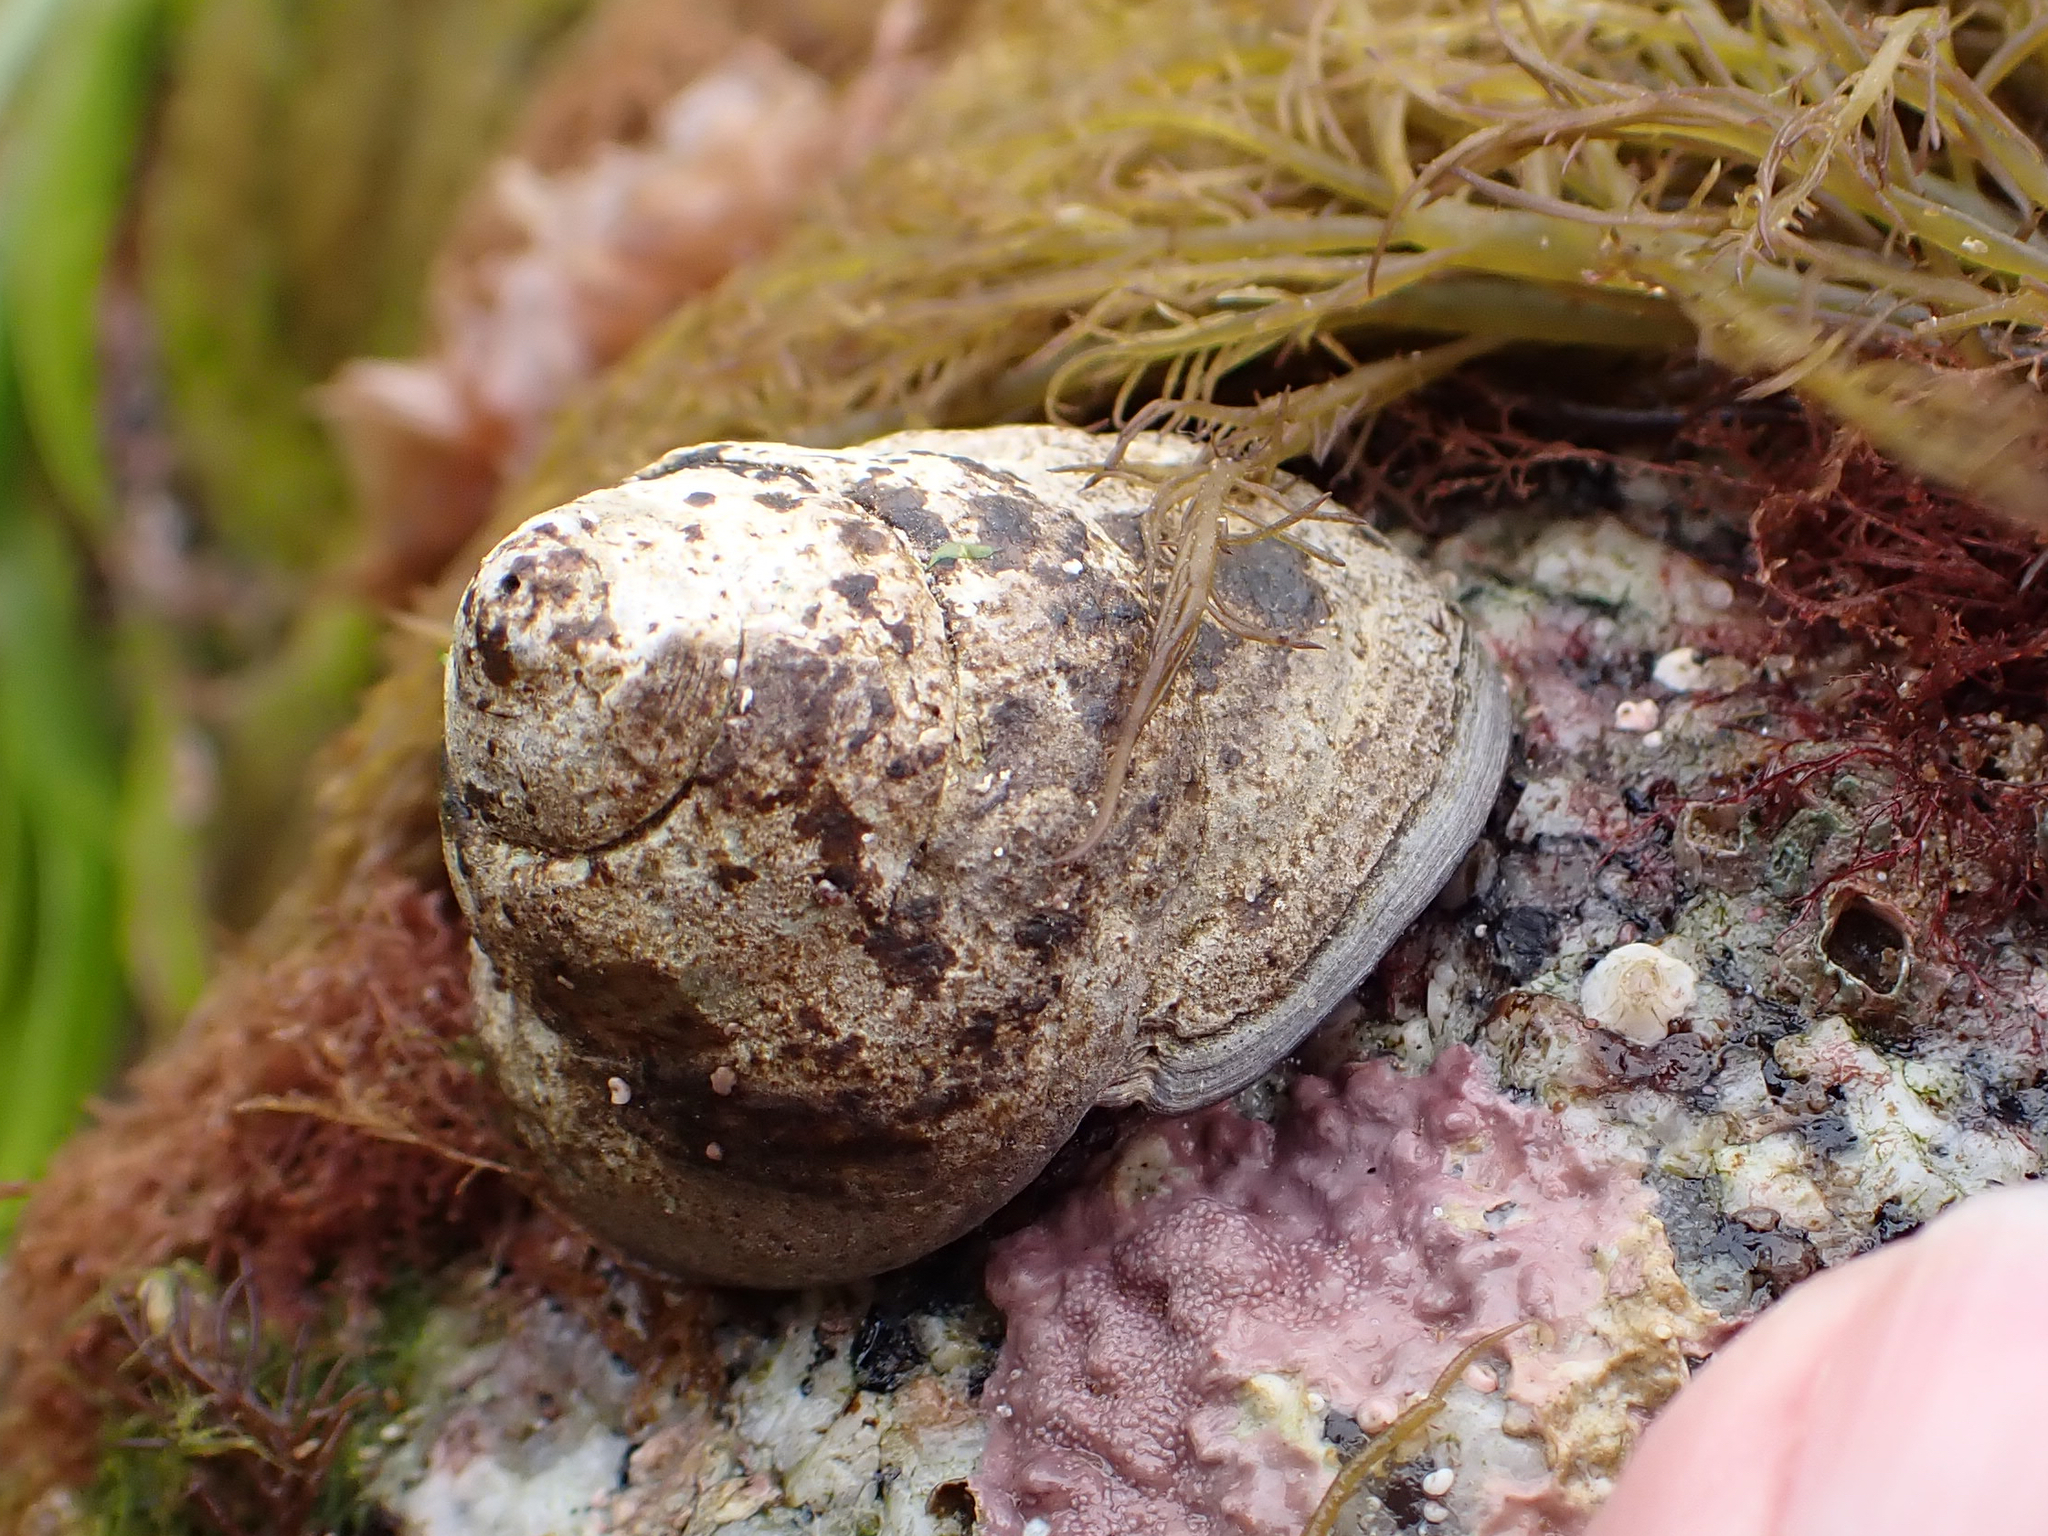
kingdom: Animalia
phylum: Mollusca
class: Gastropoda
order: Trochida
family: Tegulidae
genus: Tegula
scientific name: Tegula pulligo
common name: Brown turban
